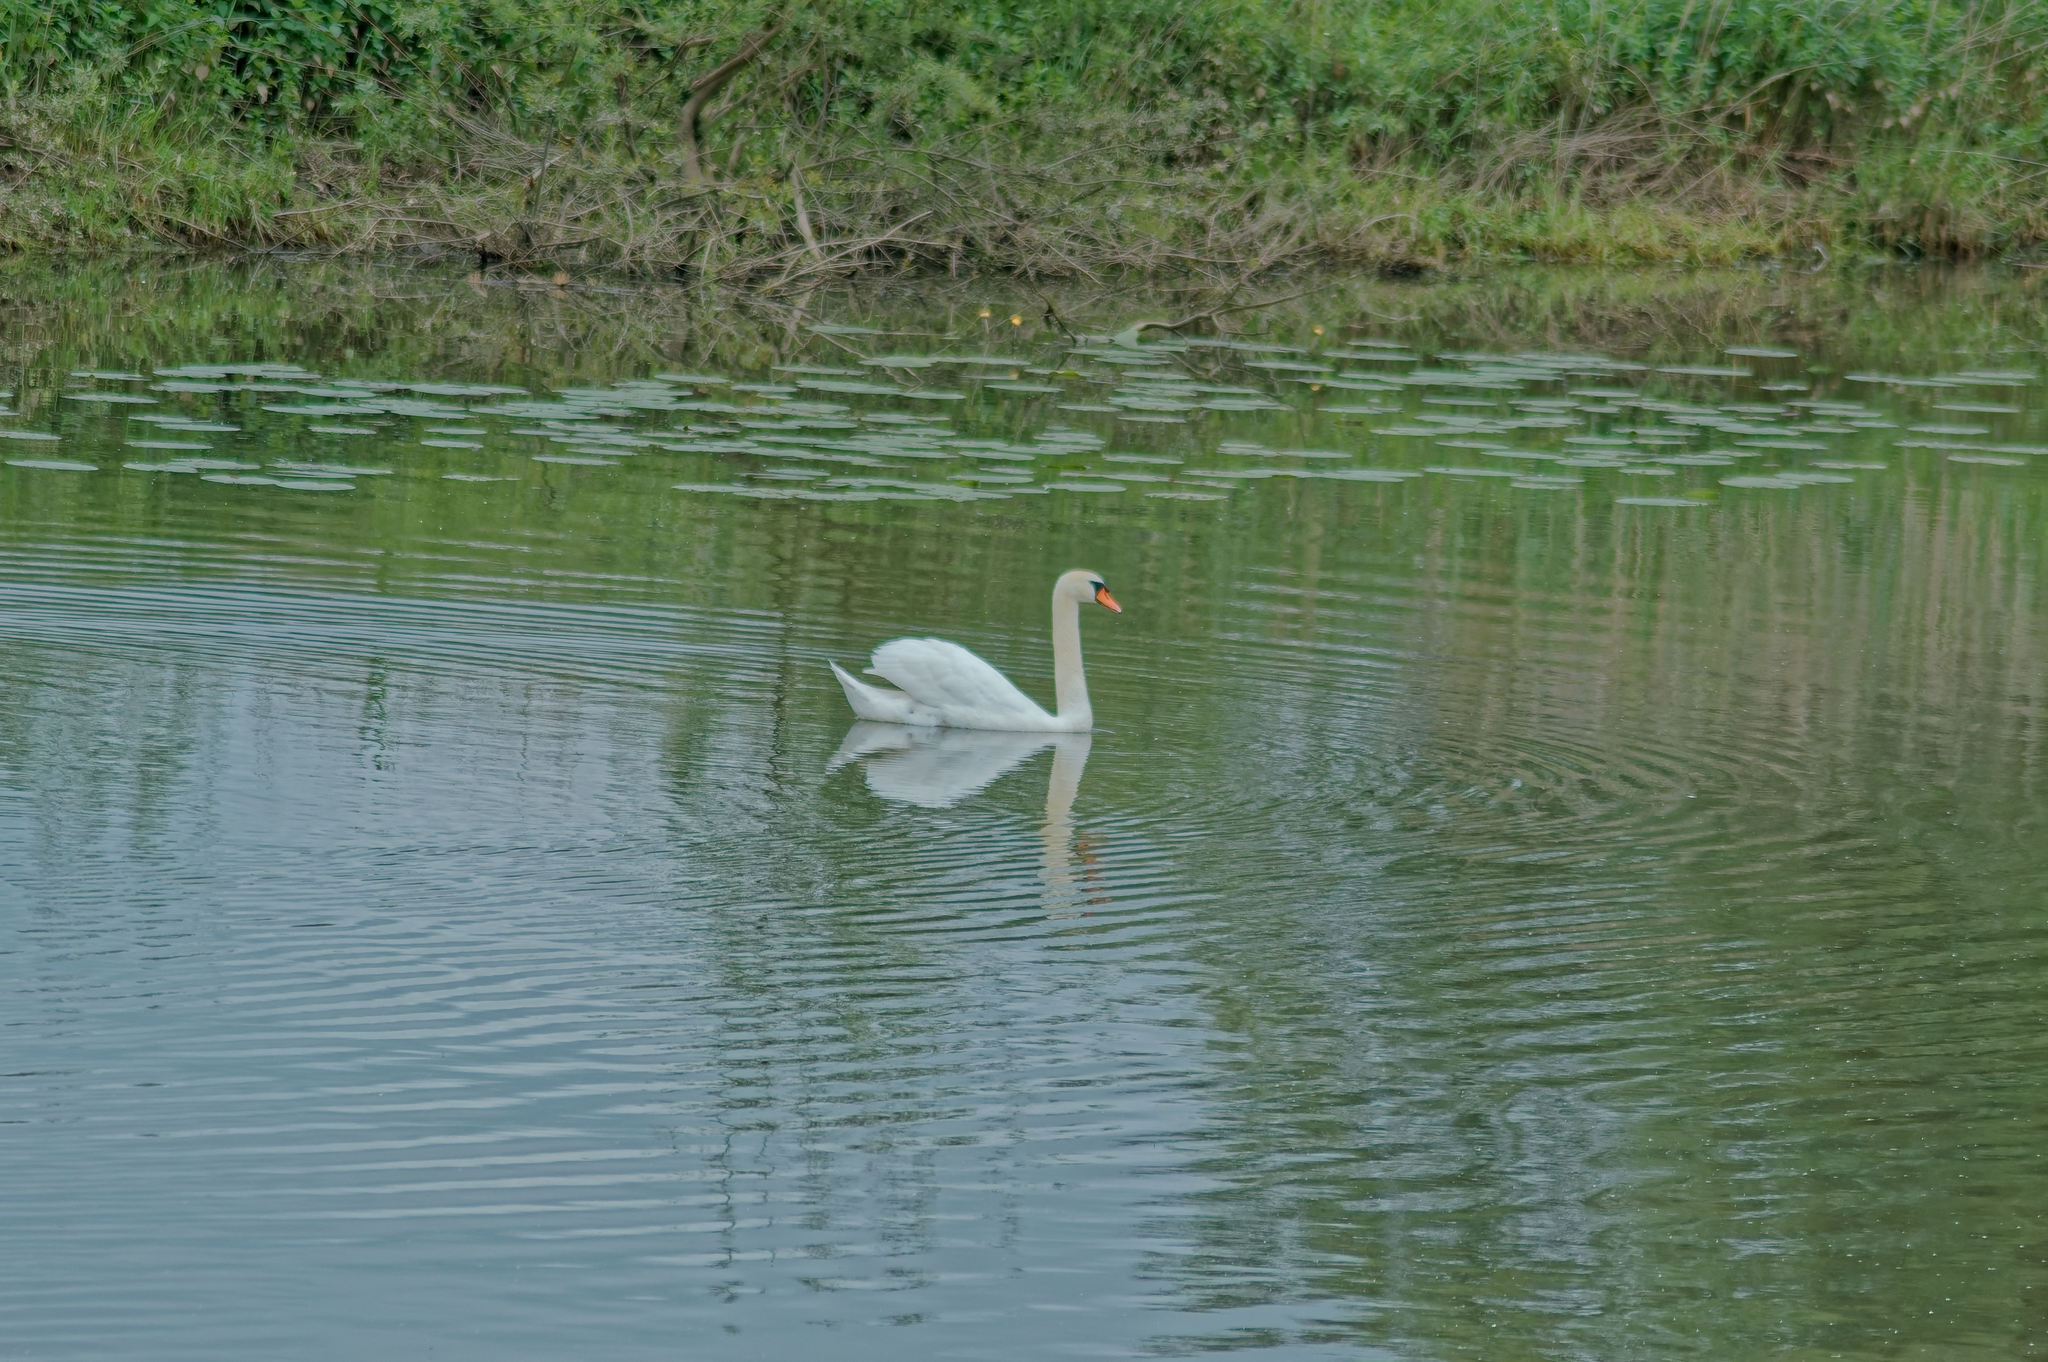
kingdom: Animalia
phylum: Chordata
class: Aves
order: Anseriformes
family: Anatidae
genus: Cygnus
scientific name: Cygnus olor
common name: Mute swan
